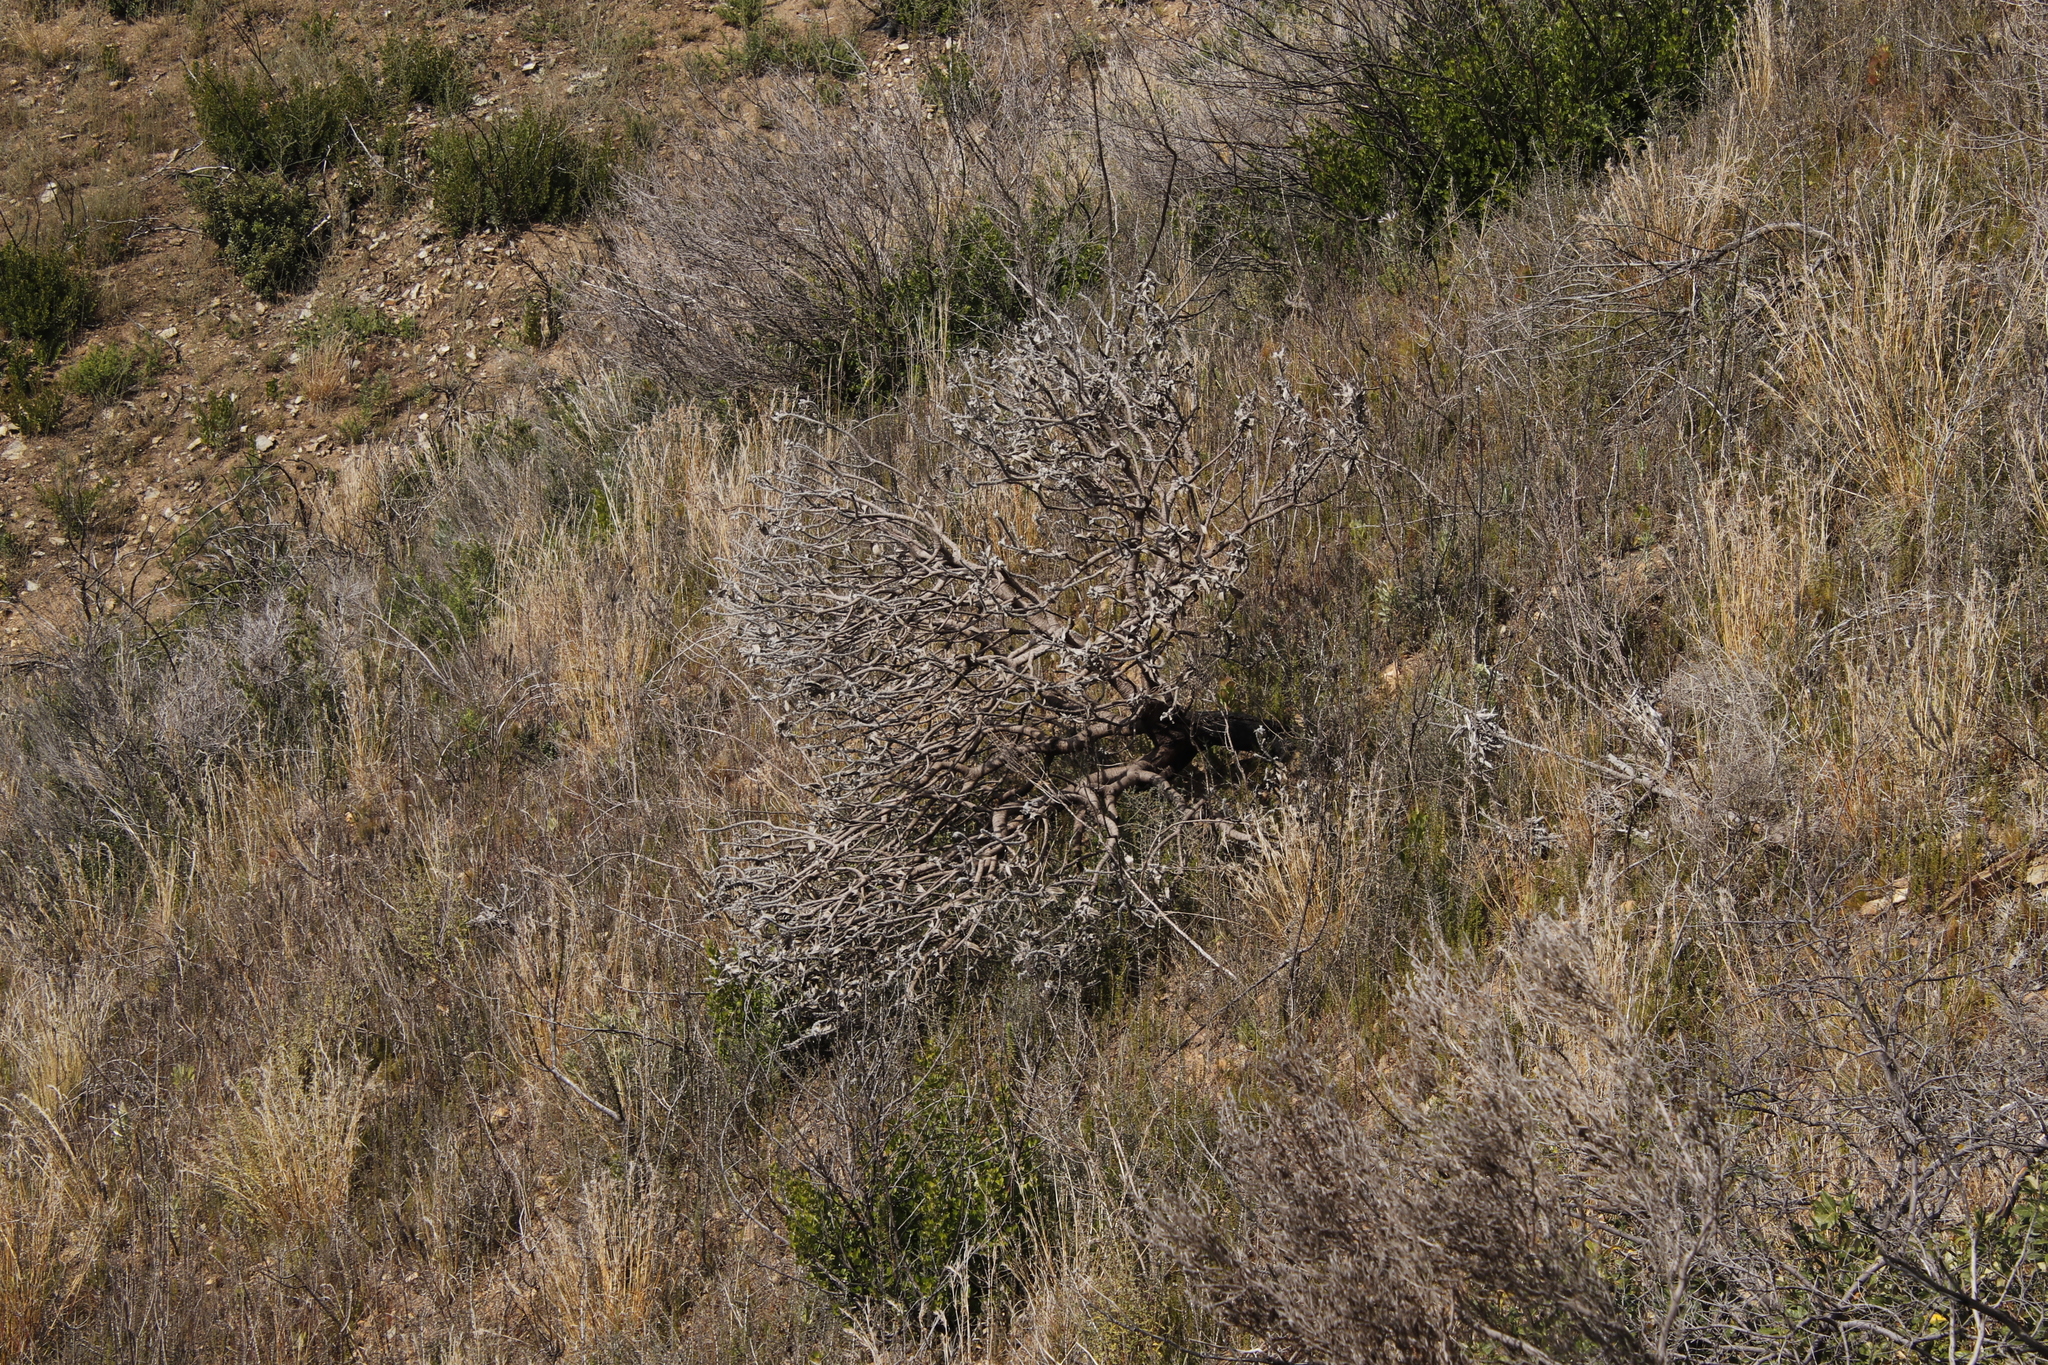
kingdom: Plantae
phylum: Tracheophyta
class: Magnoliopsida
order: Proteales
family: Proteaceae
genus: Leucospermum
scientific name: Leucospermum conocarpodendron
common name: Tree pincushion
